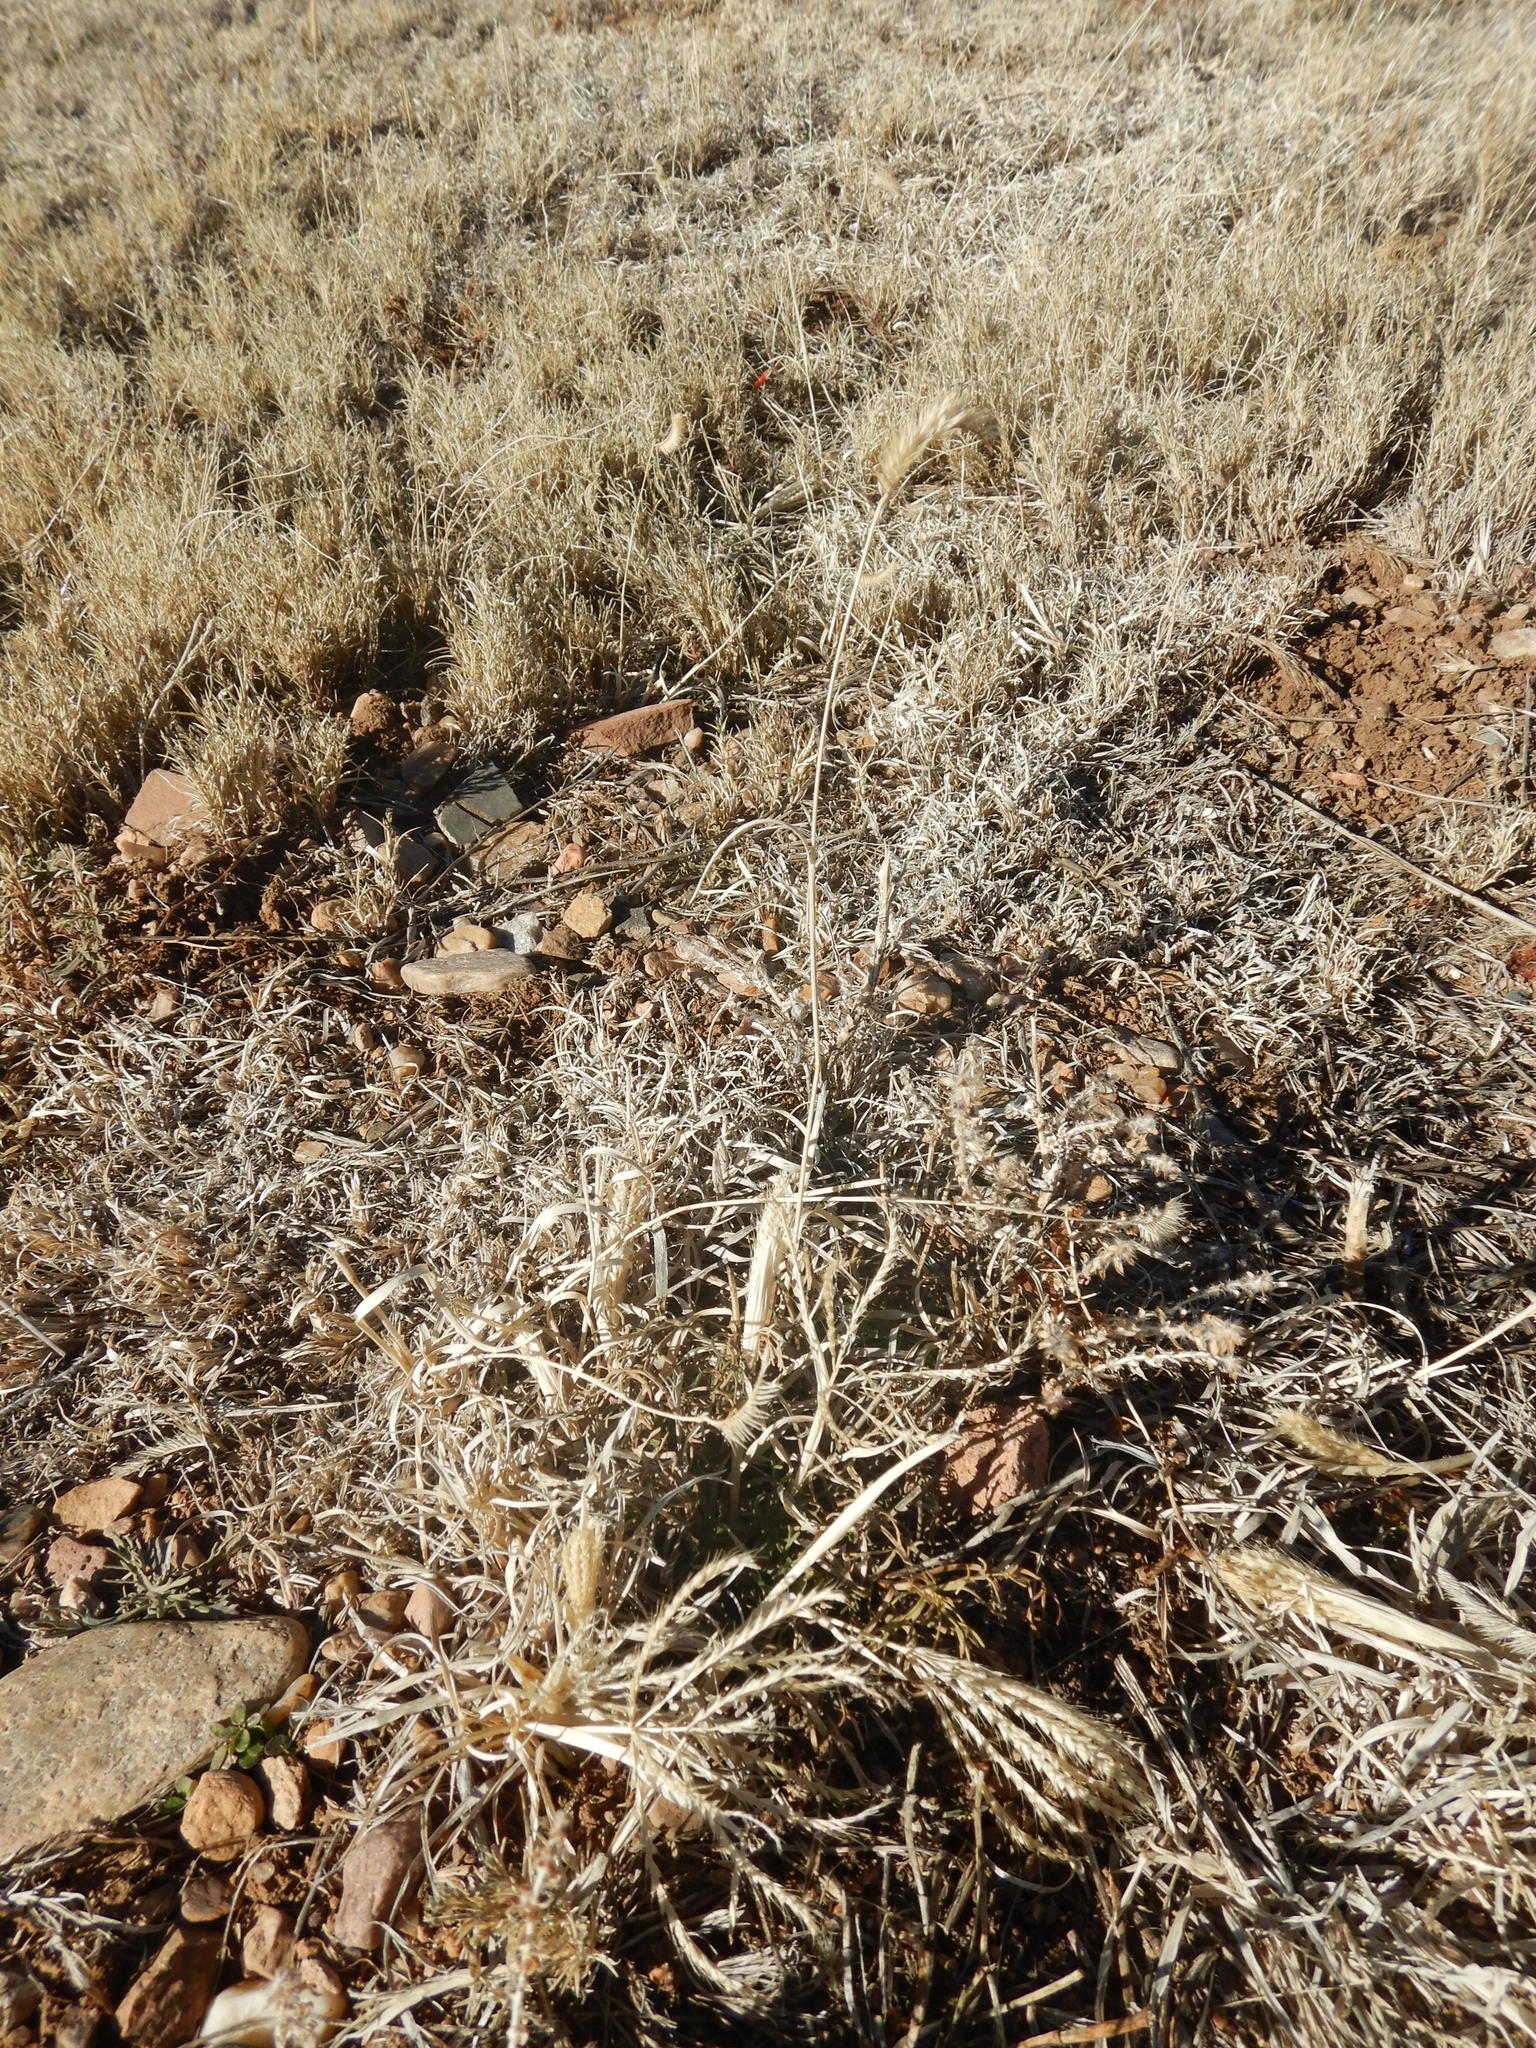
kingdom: Plantae
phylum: Tracheophyta
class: Liliopsida
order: Poales
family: Poaceae
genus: Bouteloua
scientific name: Bouteloua gracilis
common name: Blue grama
